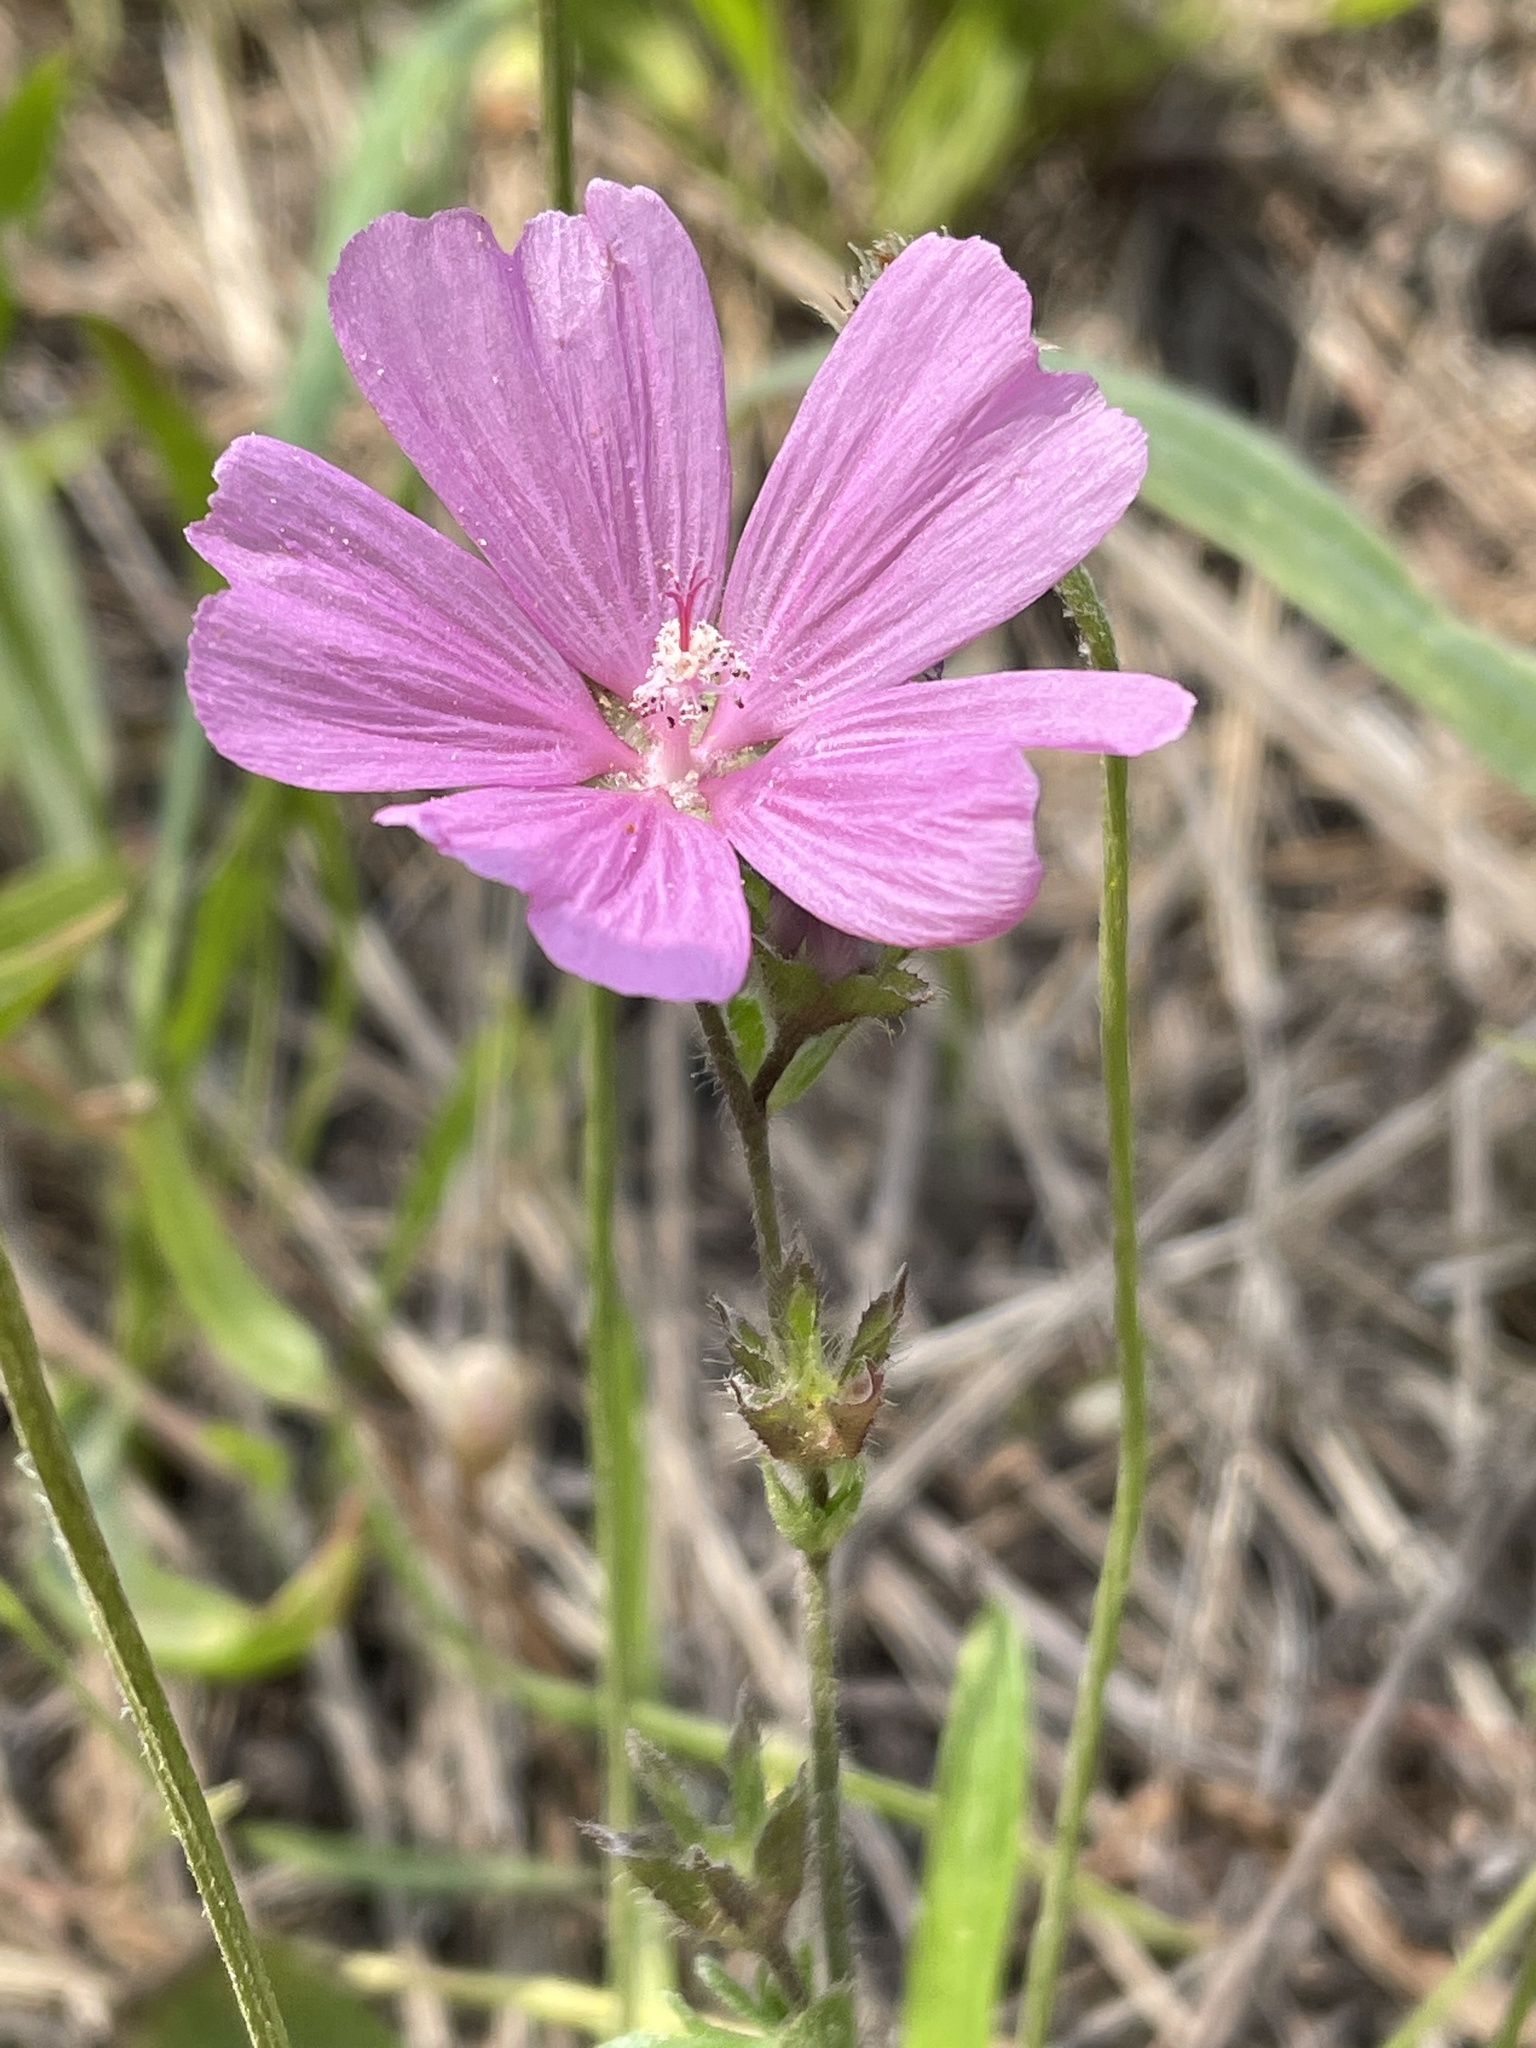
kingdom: Plantae
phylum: Tracheophyta
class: Magnoliopsida
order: Malvales
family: Malvaceae
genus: Sidalcea
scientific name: Sidalcea malviflora
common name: Greek mallow
